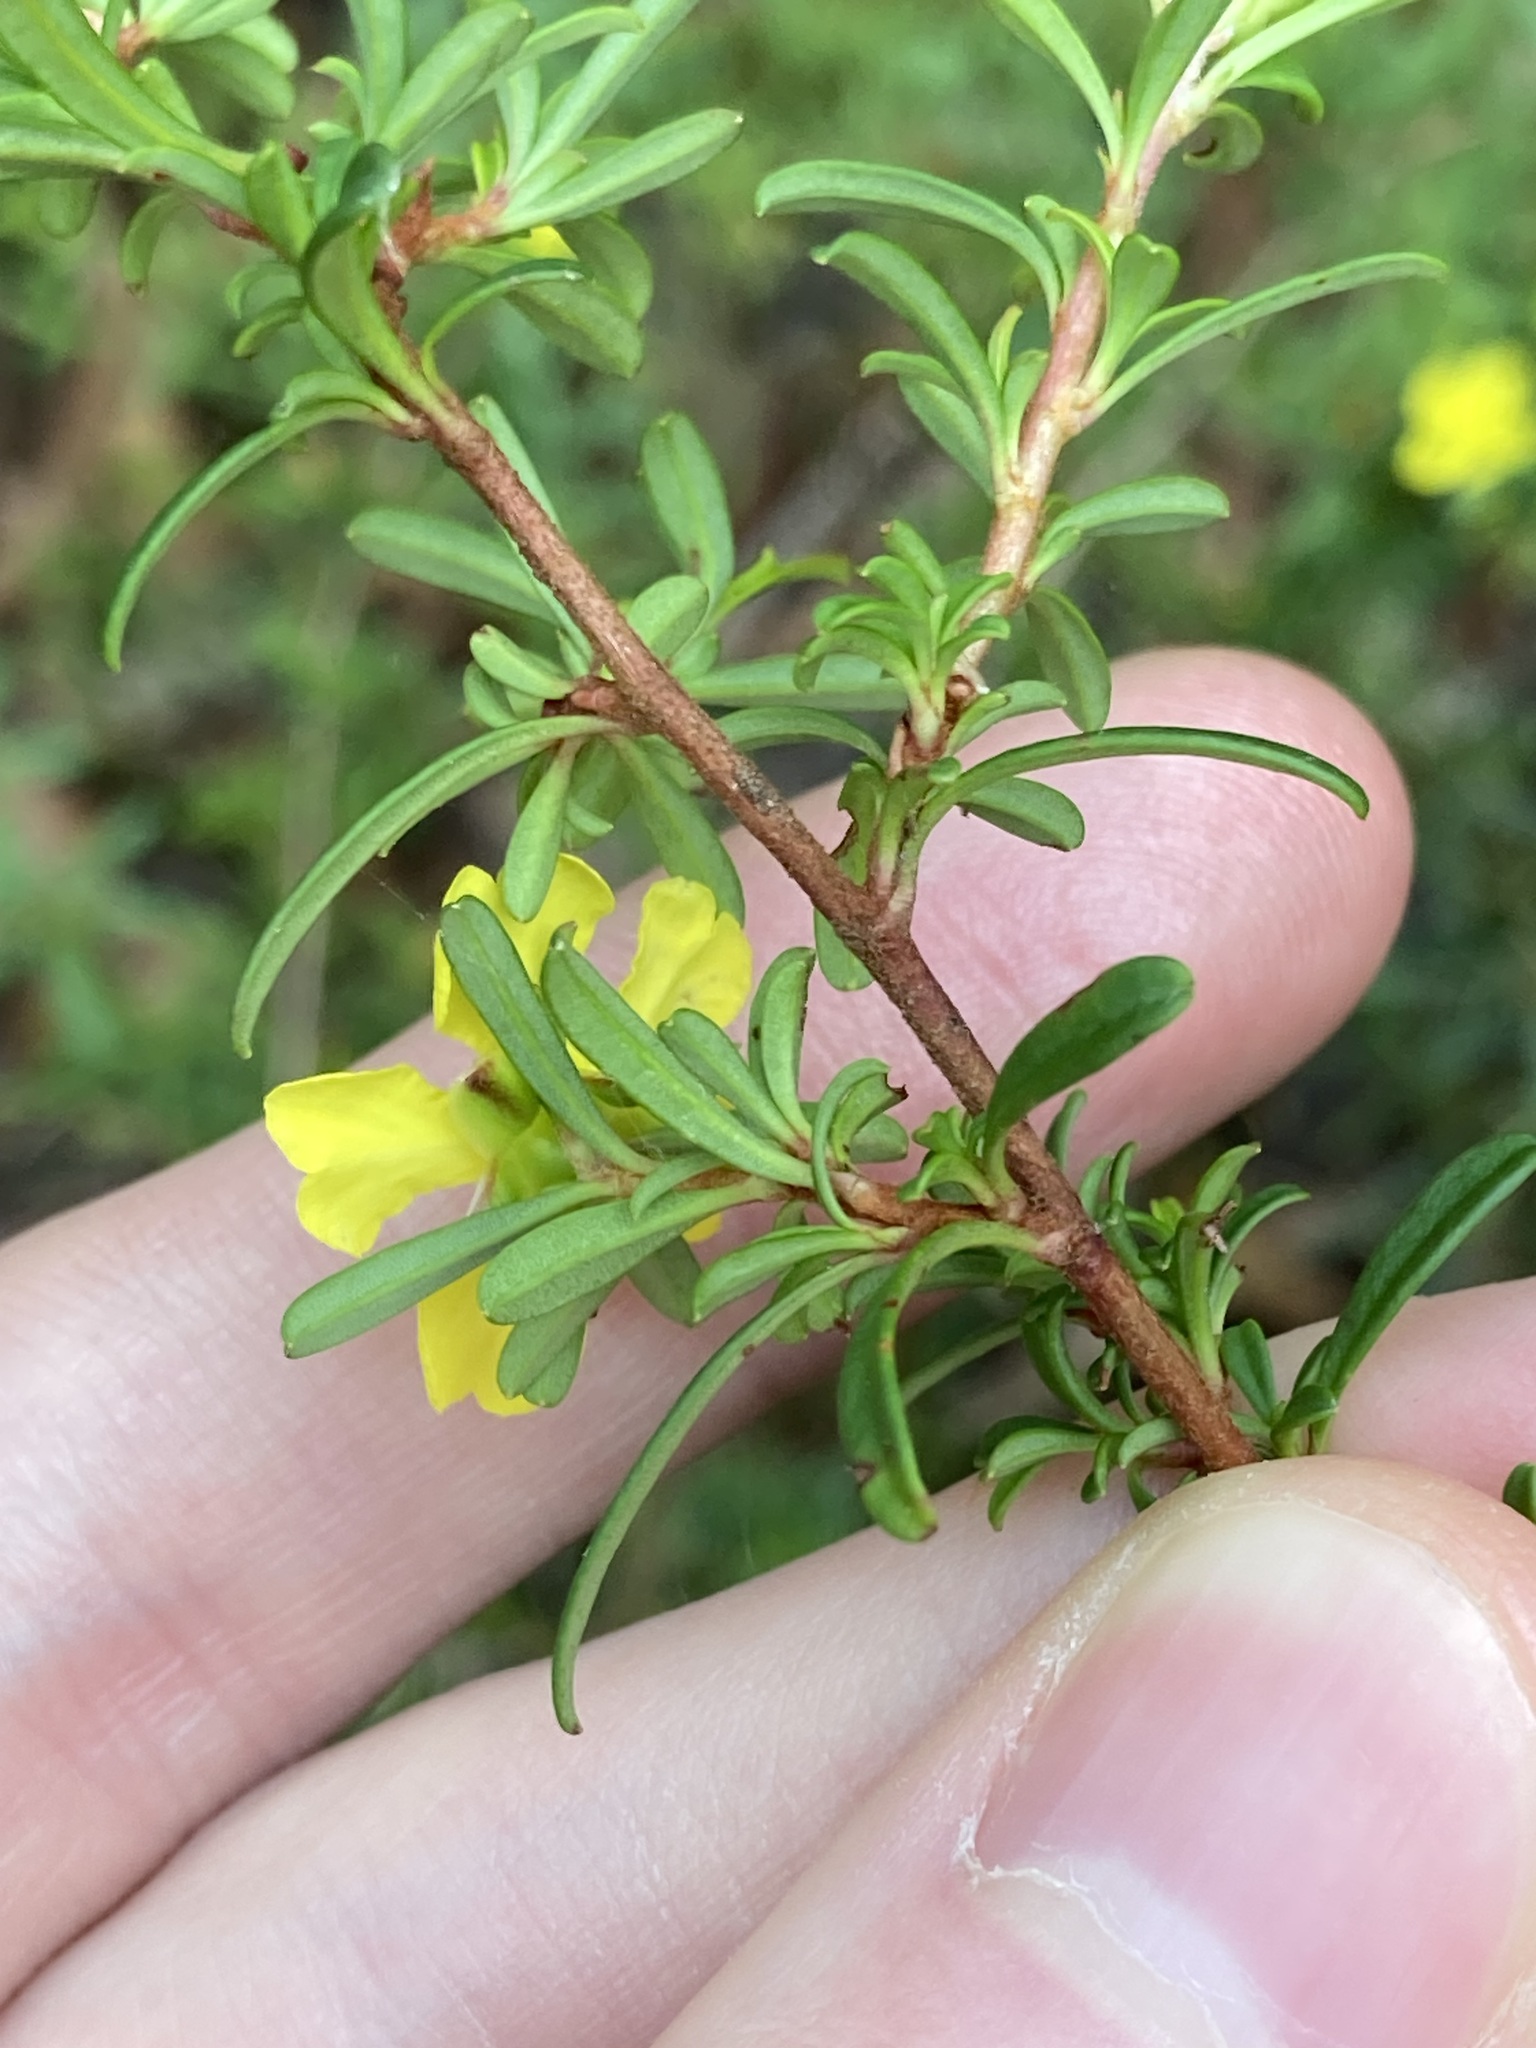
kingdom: Plantae
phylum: Tracheophyta
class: Magnoliopsida
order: Dilleniales
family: Dilleniaceae
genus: Hibbertia
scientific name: Hibbertia monogyna
